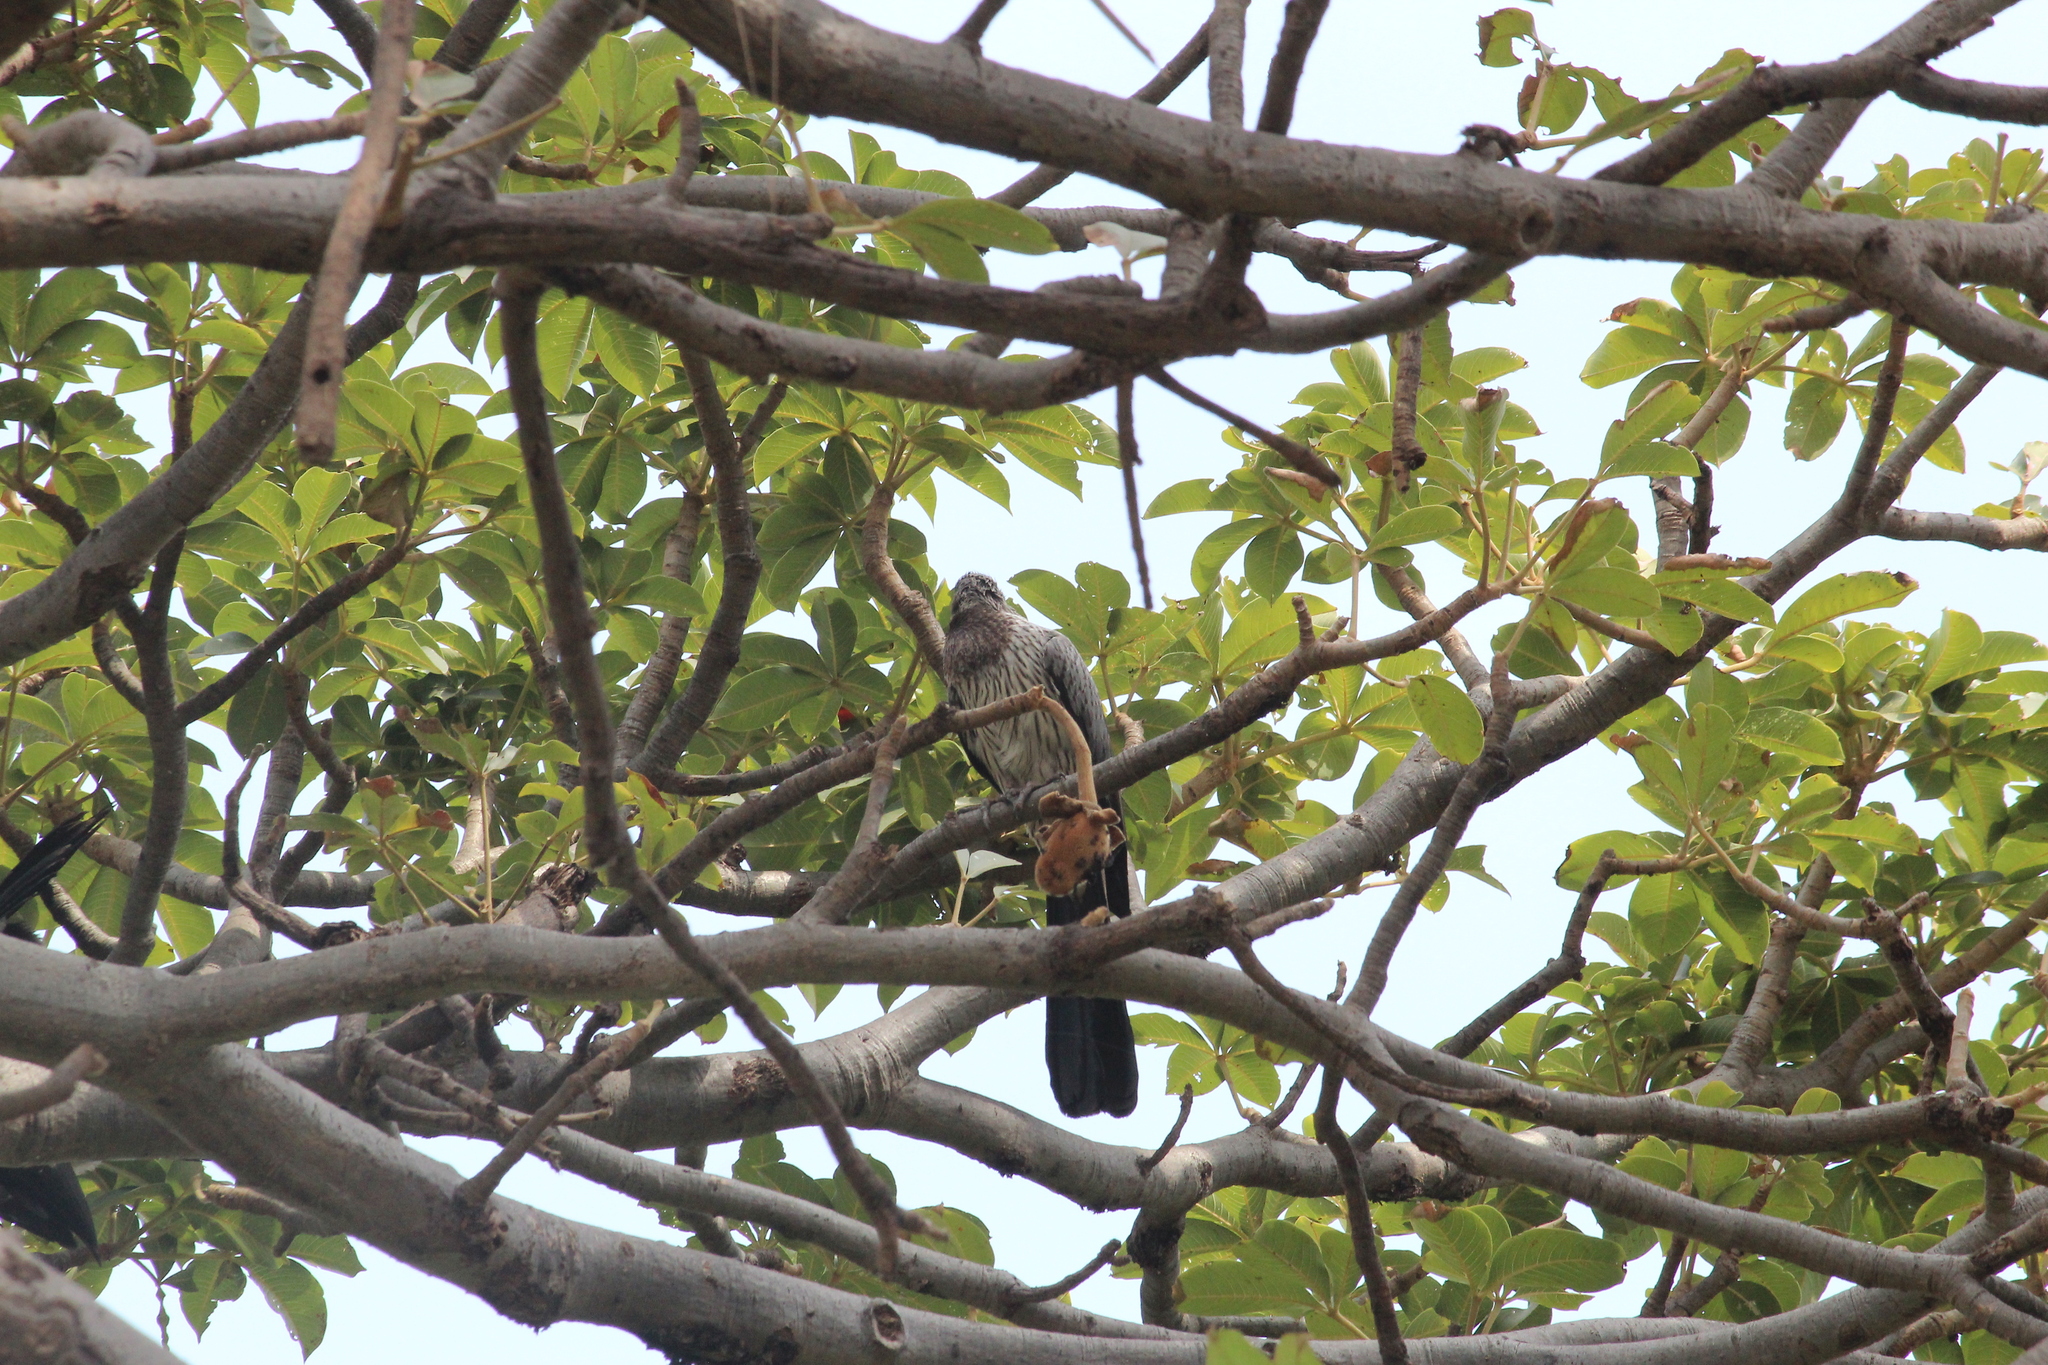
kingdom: Animalia
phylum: Chordata
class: Aves
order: Musophagiformes
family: Musophagidae
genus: Crinifer
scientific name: Crinifer piscator
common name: Western plantain-eater
